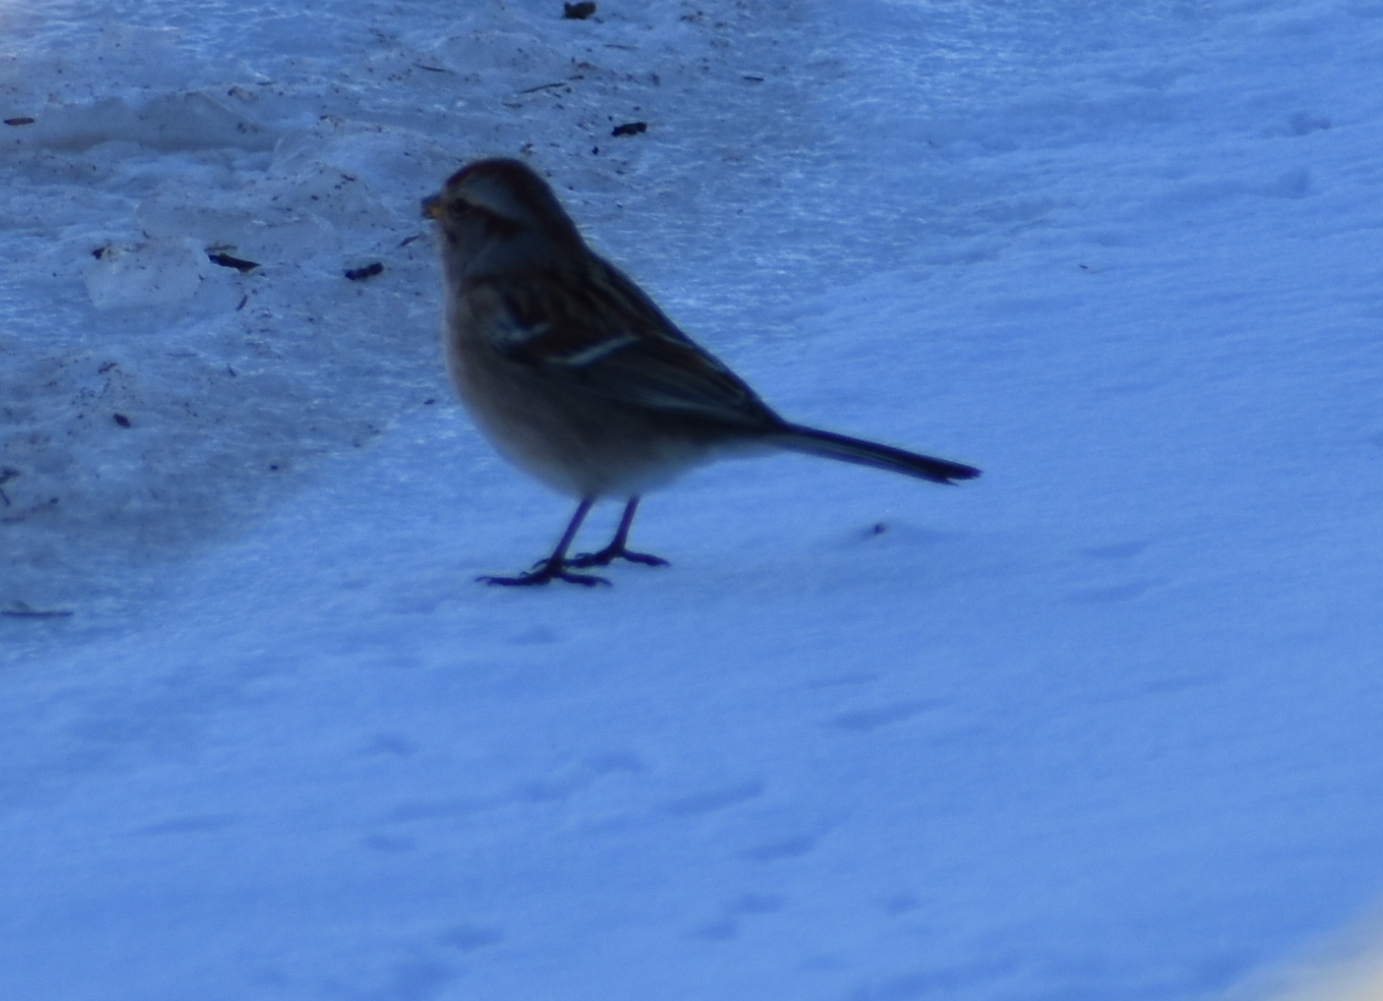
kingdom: Animalia
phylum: Chordata
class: Aves
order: Passeriformes
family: Passerellidae
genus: Spizelloides
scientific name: Spizelloides arborea
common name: American tree sparrow
